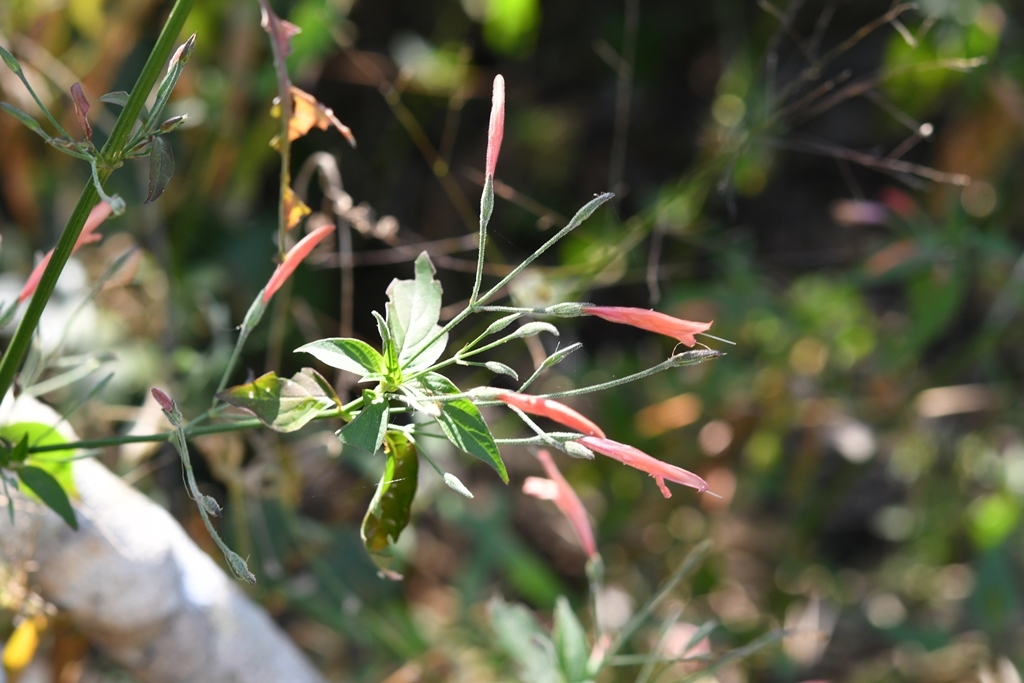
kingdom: Plantae
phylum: Tracheophyta
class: Magnoliopsida
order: Lamiales
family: Acanthaceae
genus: Dicliptera
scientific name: Dicliptera sciadephora
